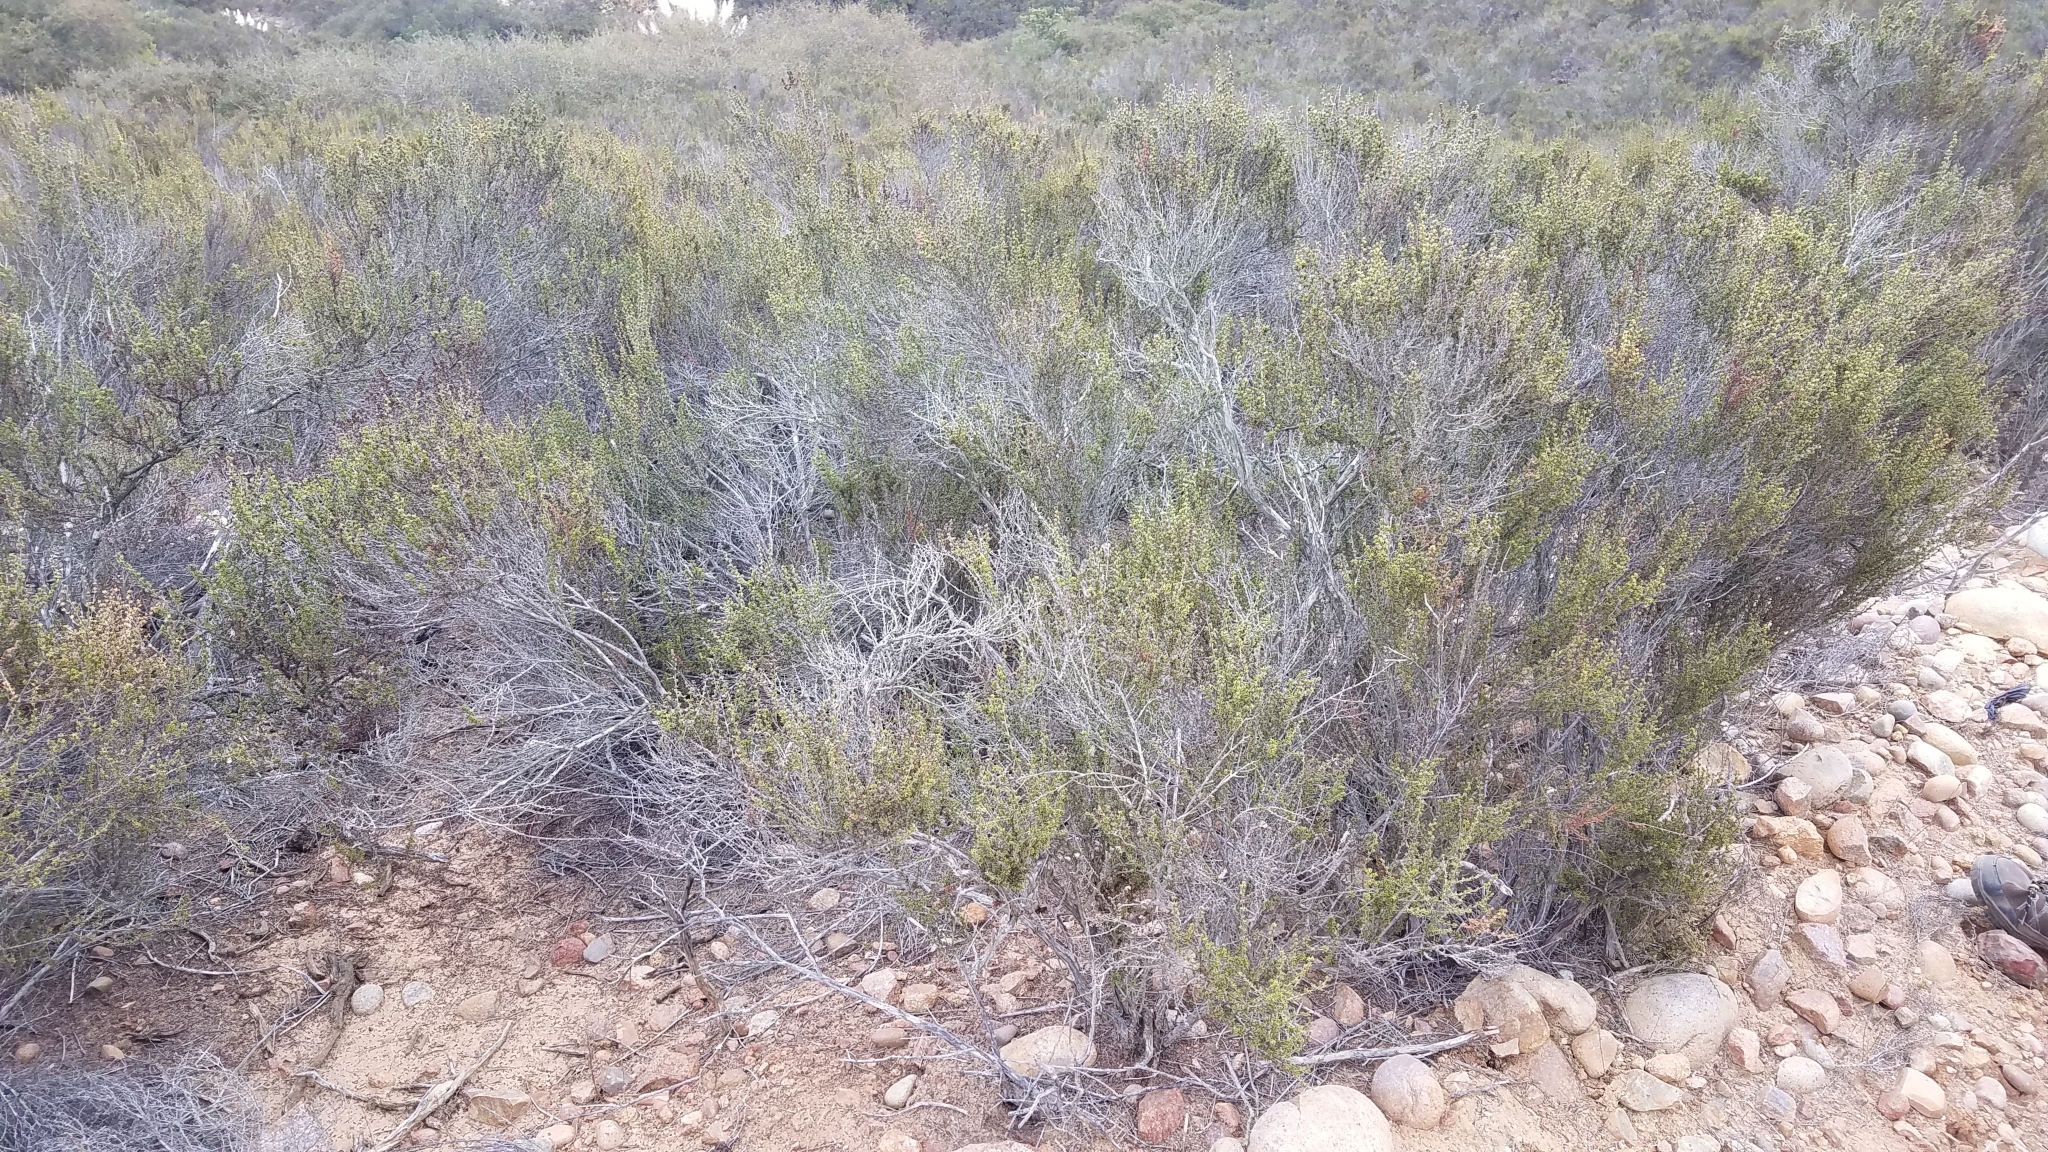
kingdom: Plantae
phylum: Tracheophyta
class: Magnoliopsida
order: Rosales
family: Rosaceae
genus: Adenostoma
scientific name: Adenostoma fasciculatum
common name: Chamise
